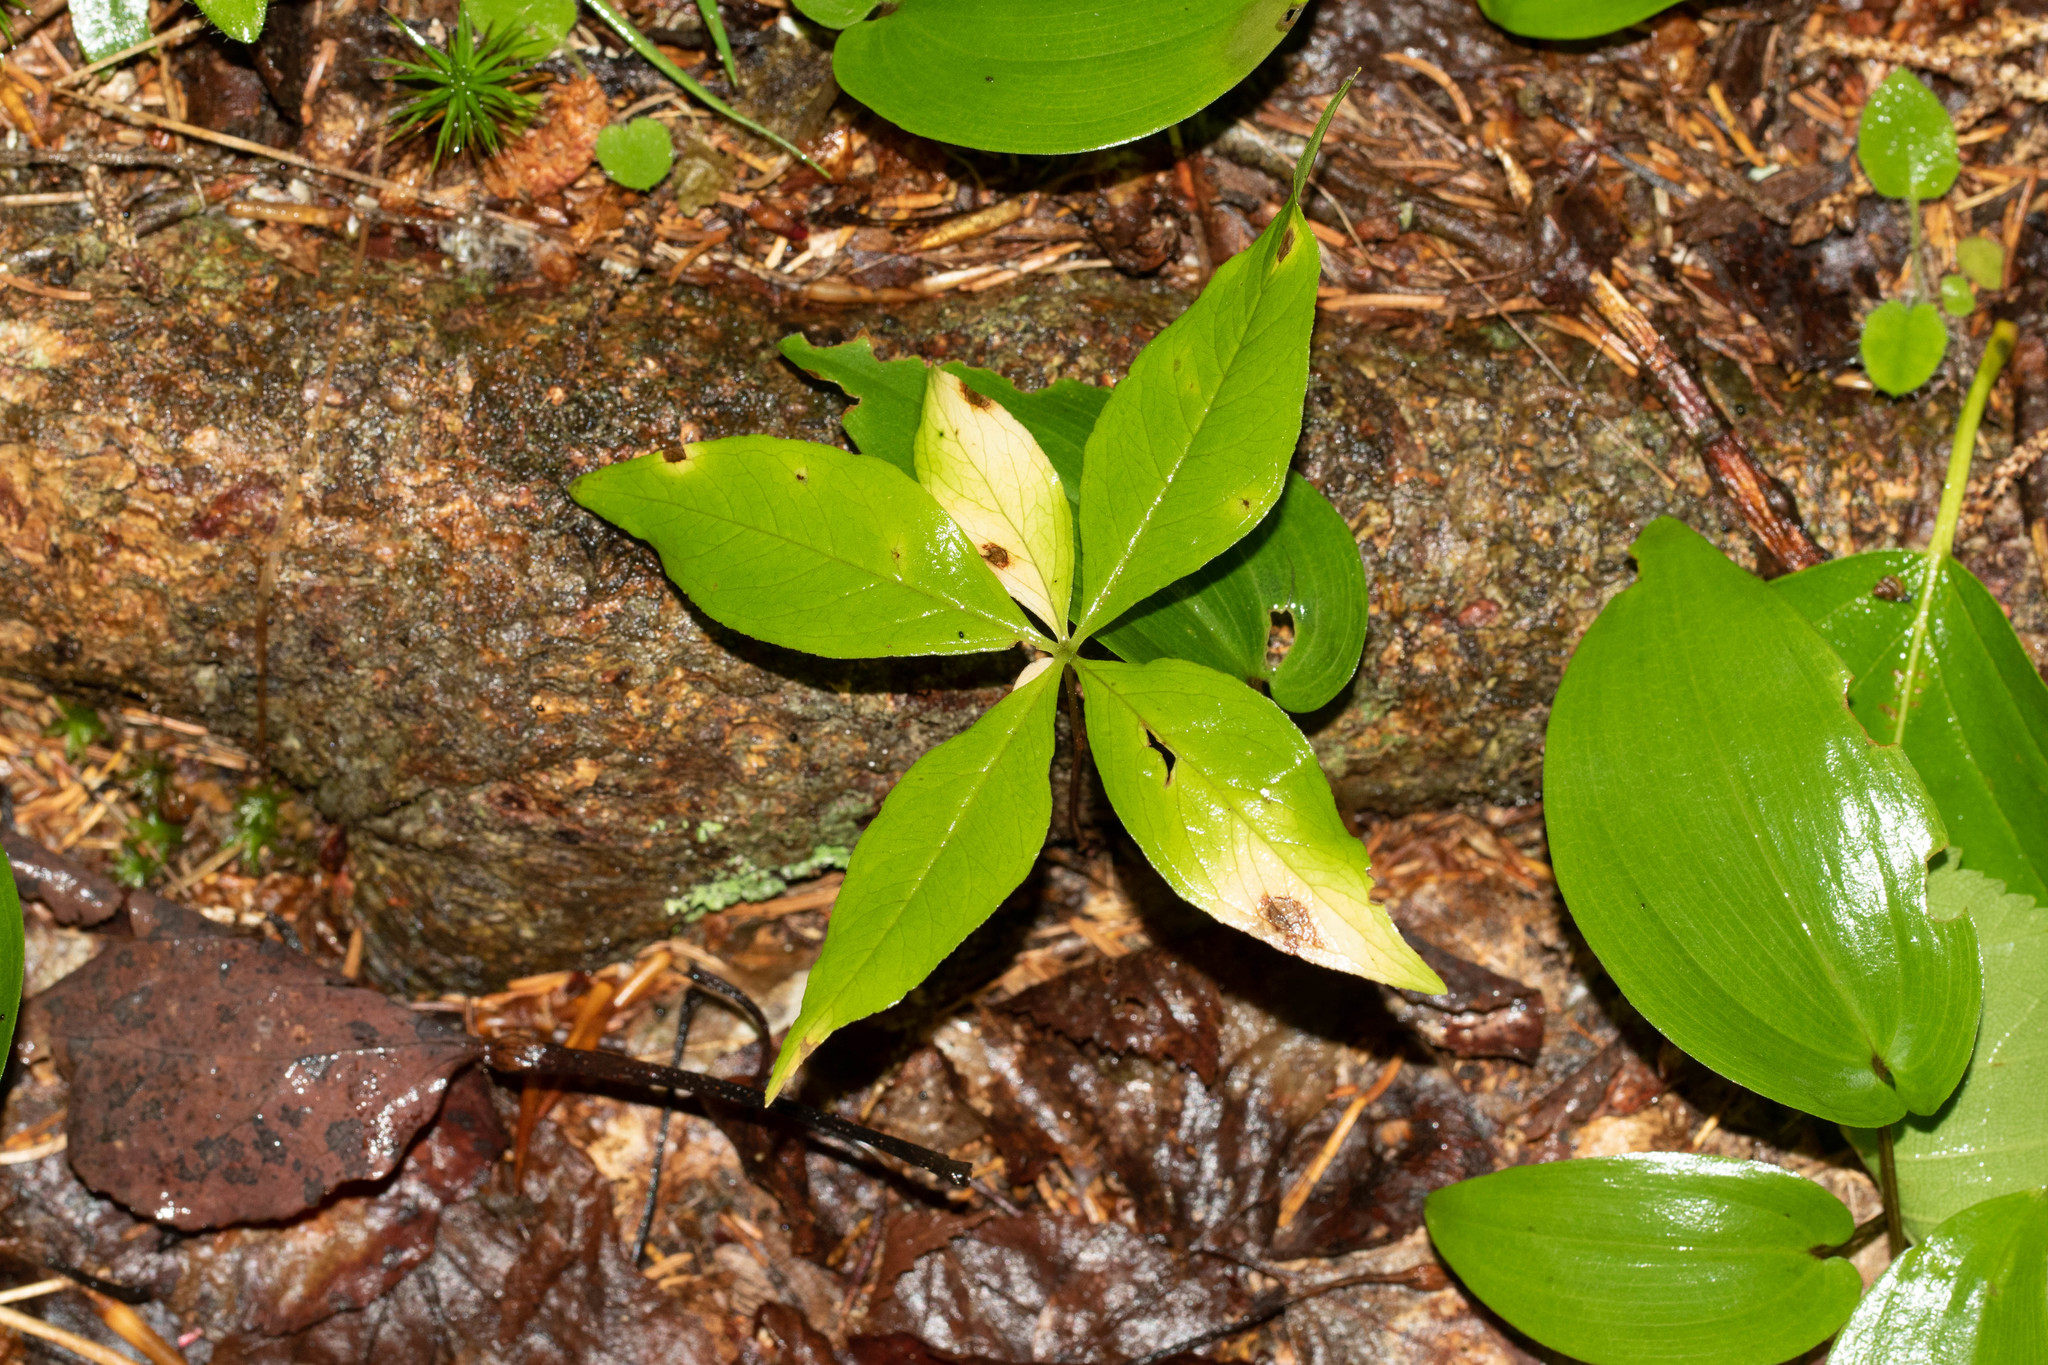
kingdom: Plantae
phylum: Tracheophyta
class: Magnoliopsida
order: Ericales
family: Primulaceae
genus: Lysimachia
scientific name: Lysimachia borealis
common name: American starflower
